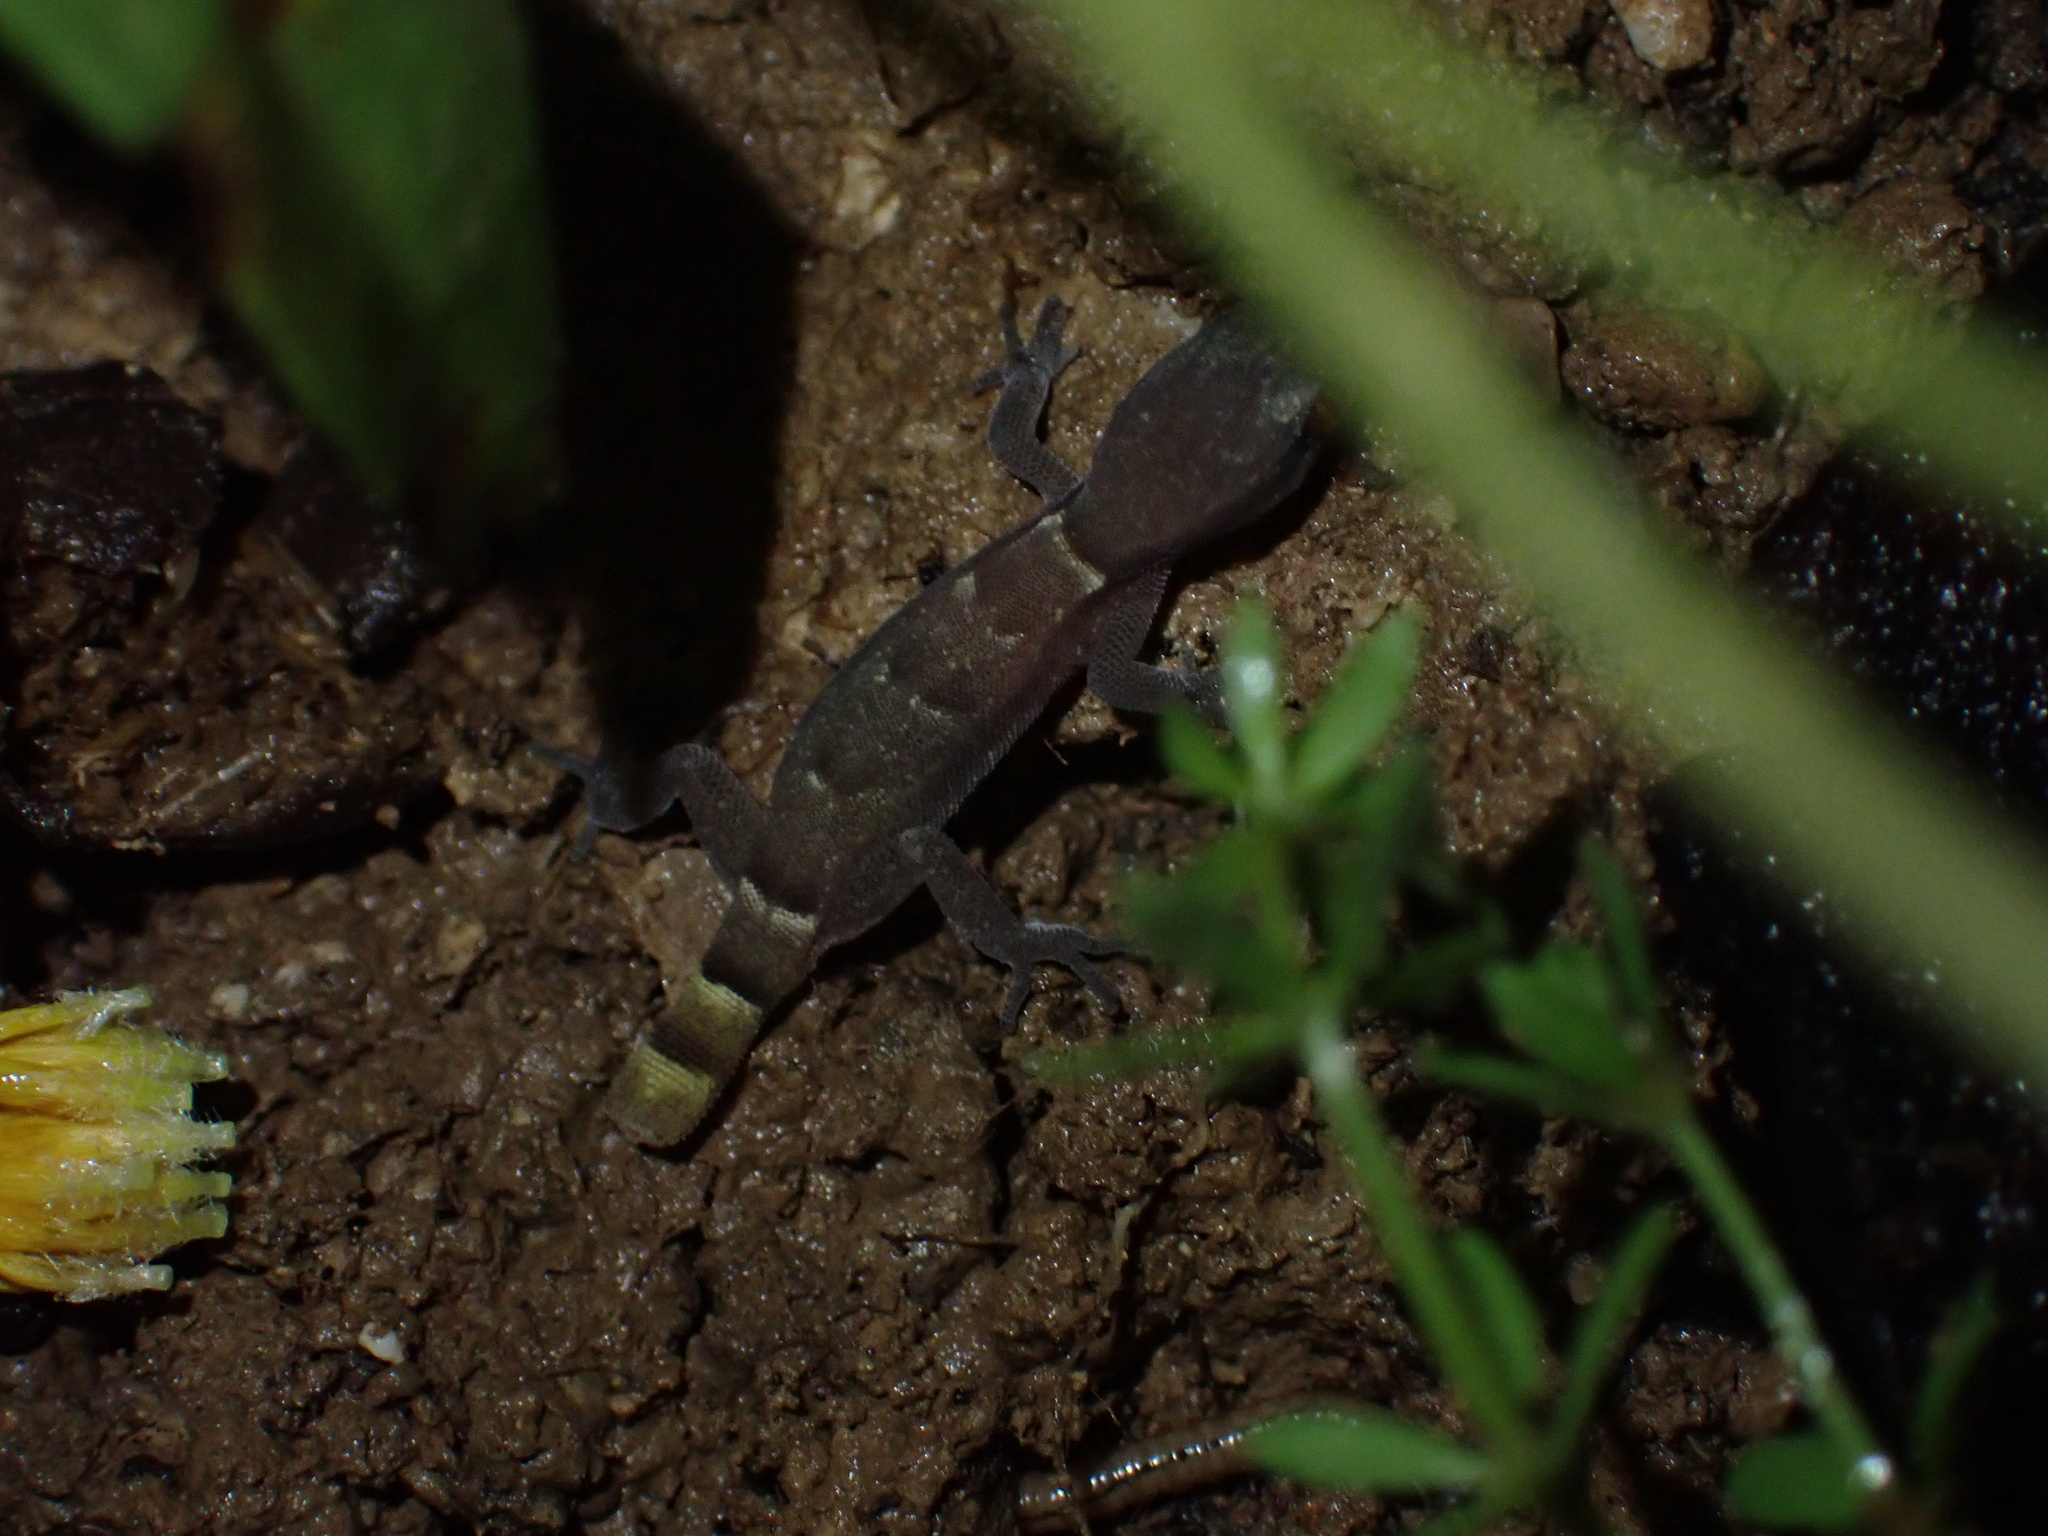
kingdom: Animalia
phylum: Chordata
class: Squamata
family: Gekkonidae
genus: Microgecko
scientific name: Microgecko helenae
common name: Banded dwarf gecko
